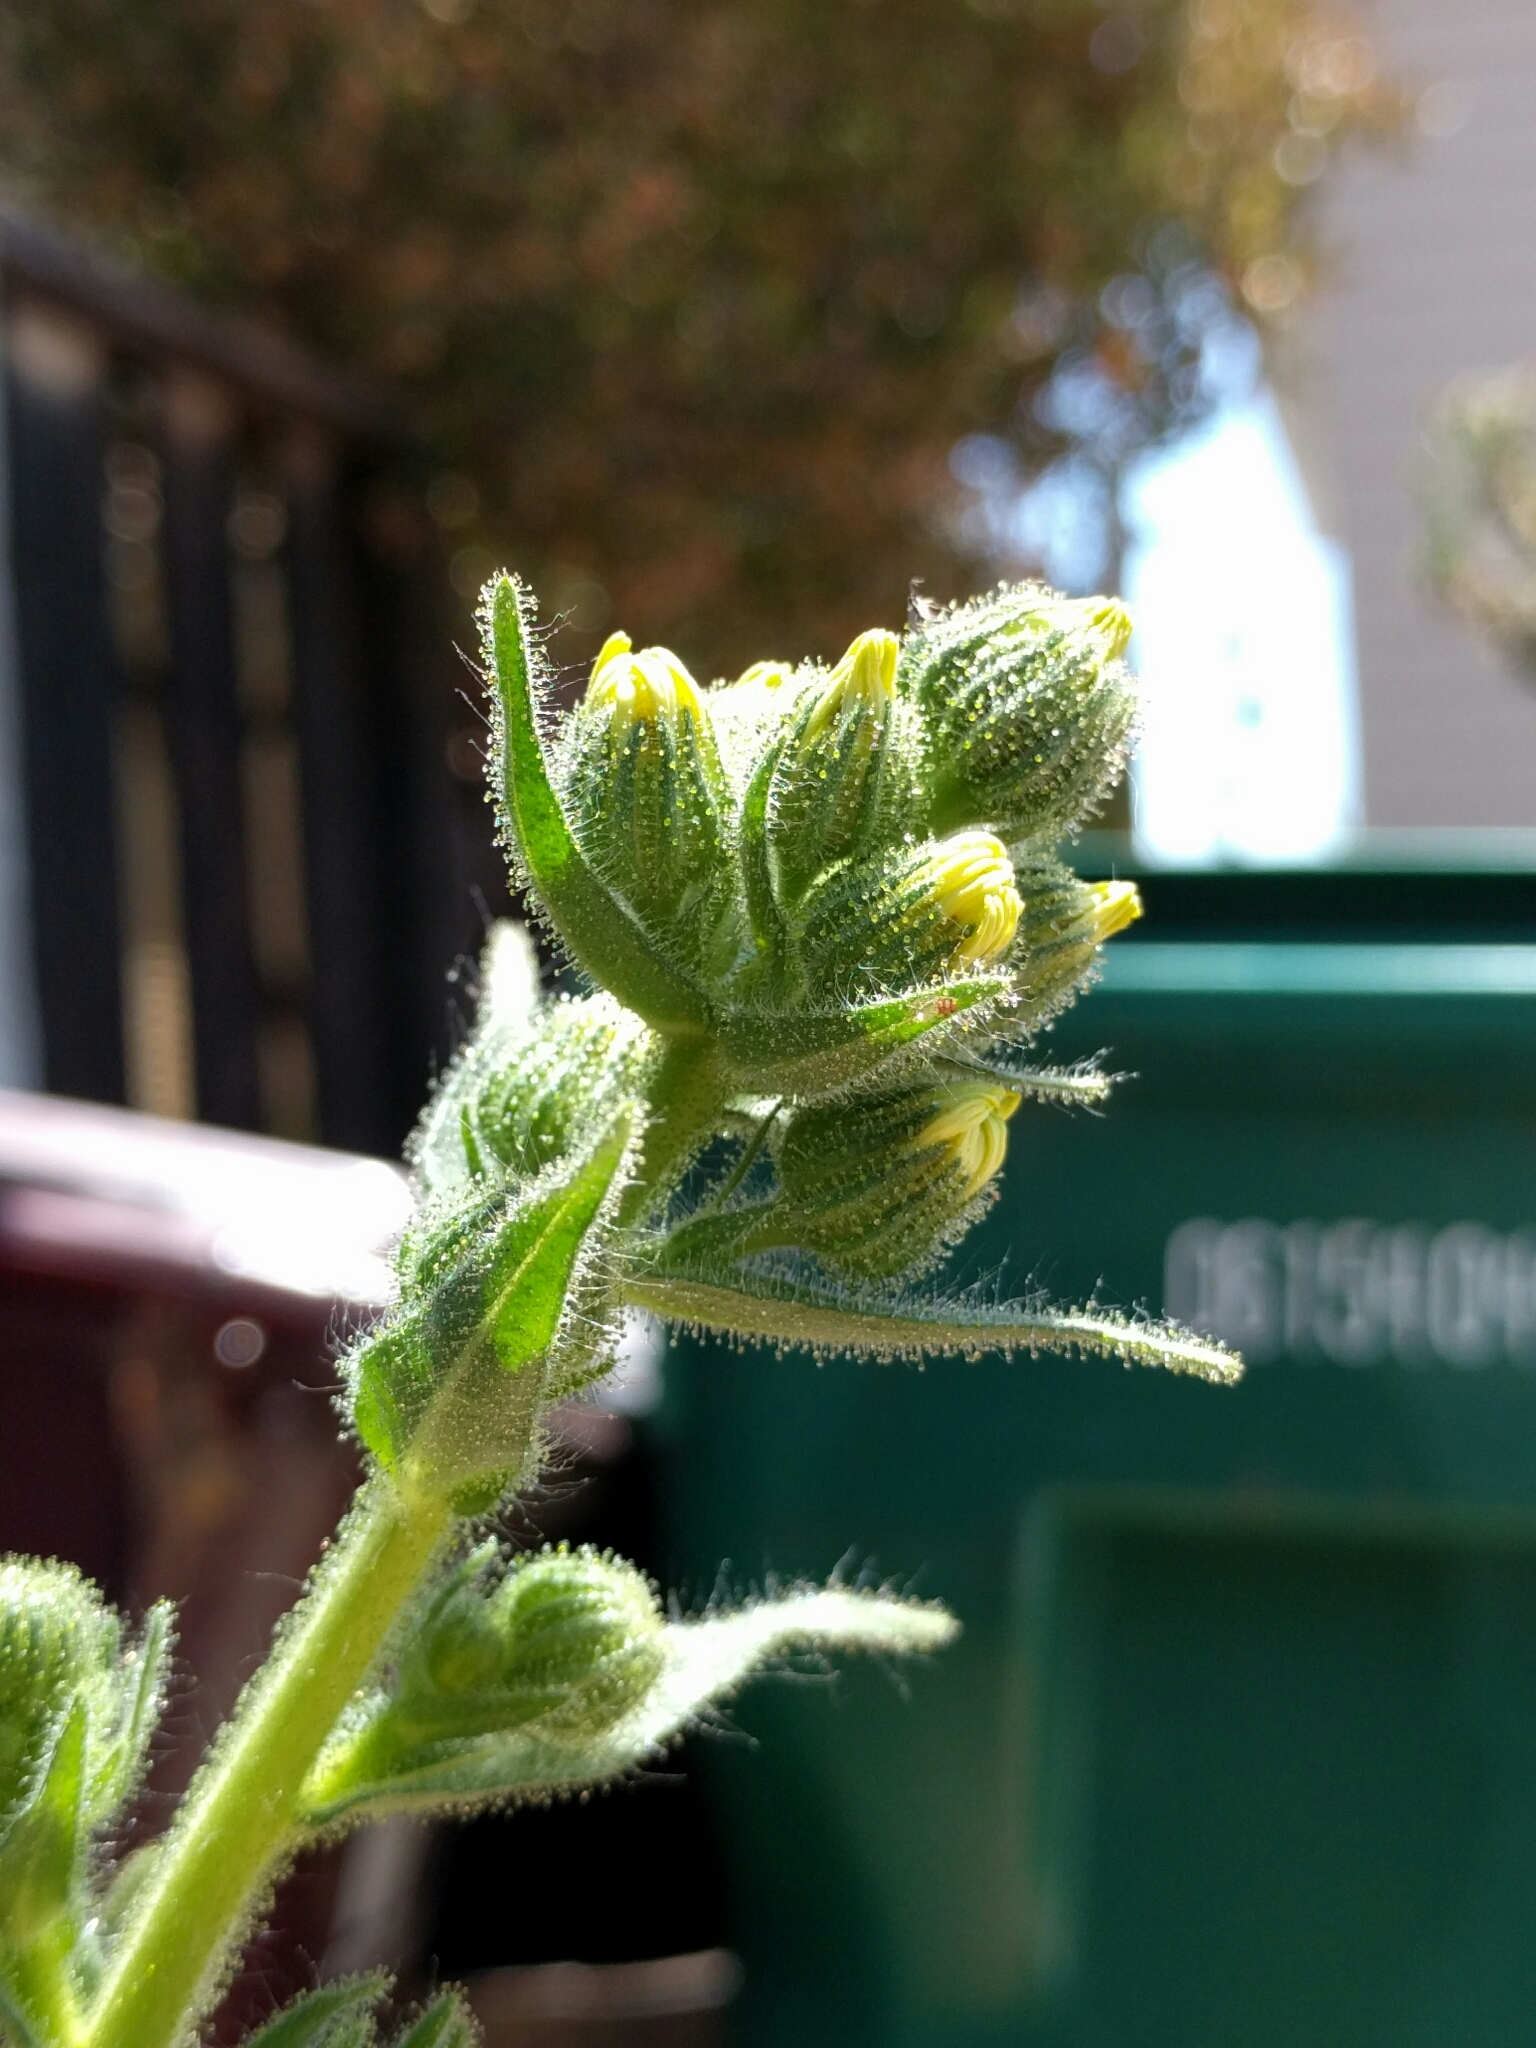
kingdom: Plantae
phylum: Tracheophyta
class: Magnoliopsida
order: Asterales
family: Asteraceae
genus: Madia
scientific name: Madia sativa
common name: Coast tarweed
